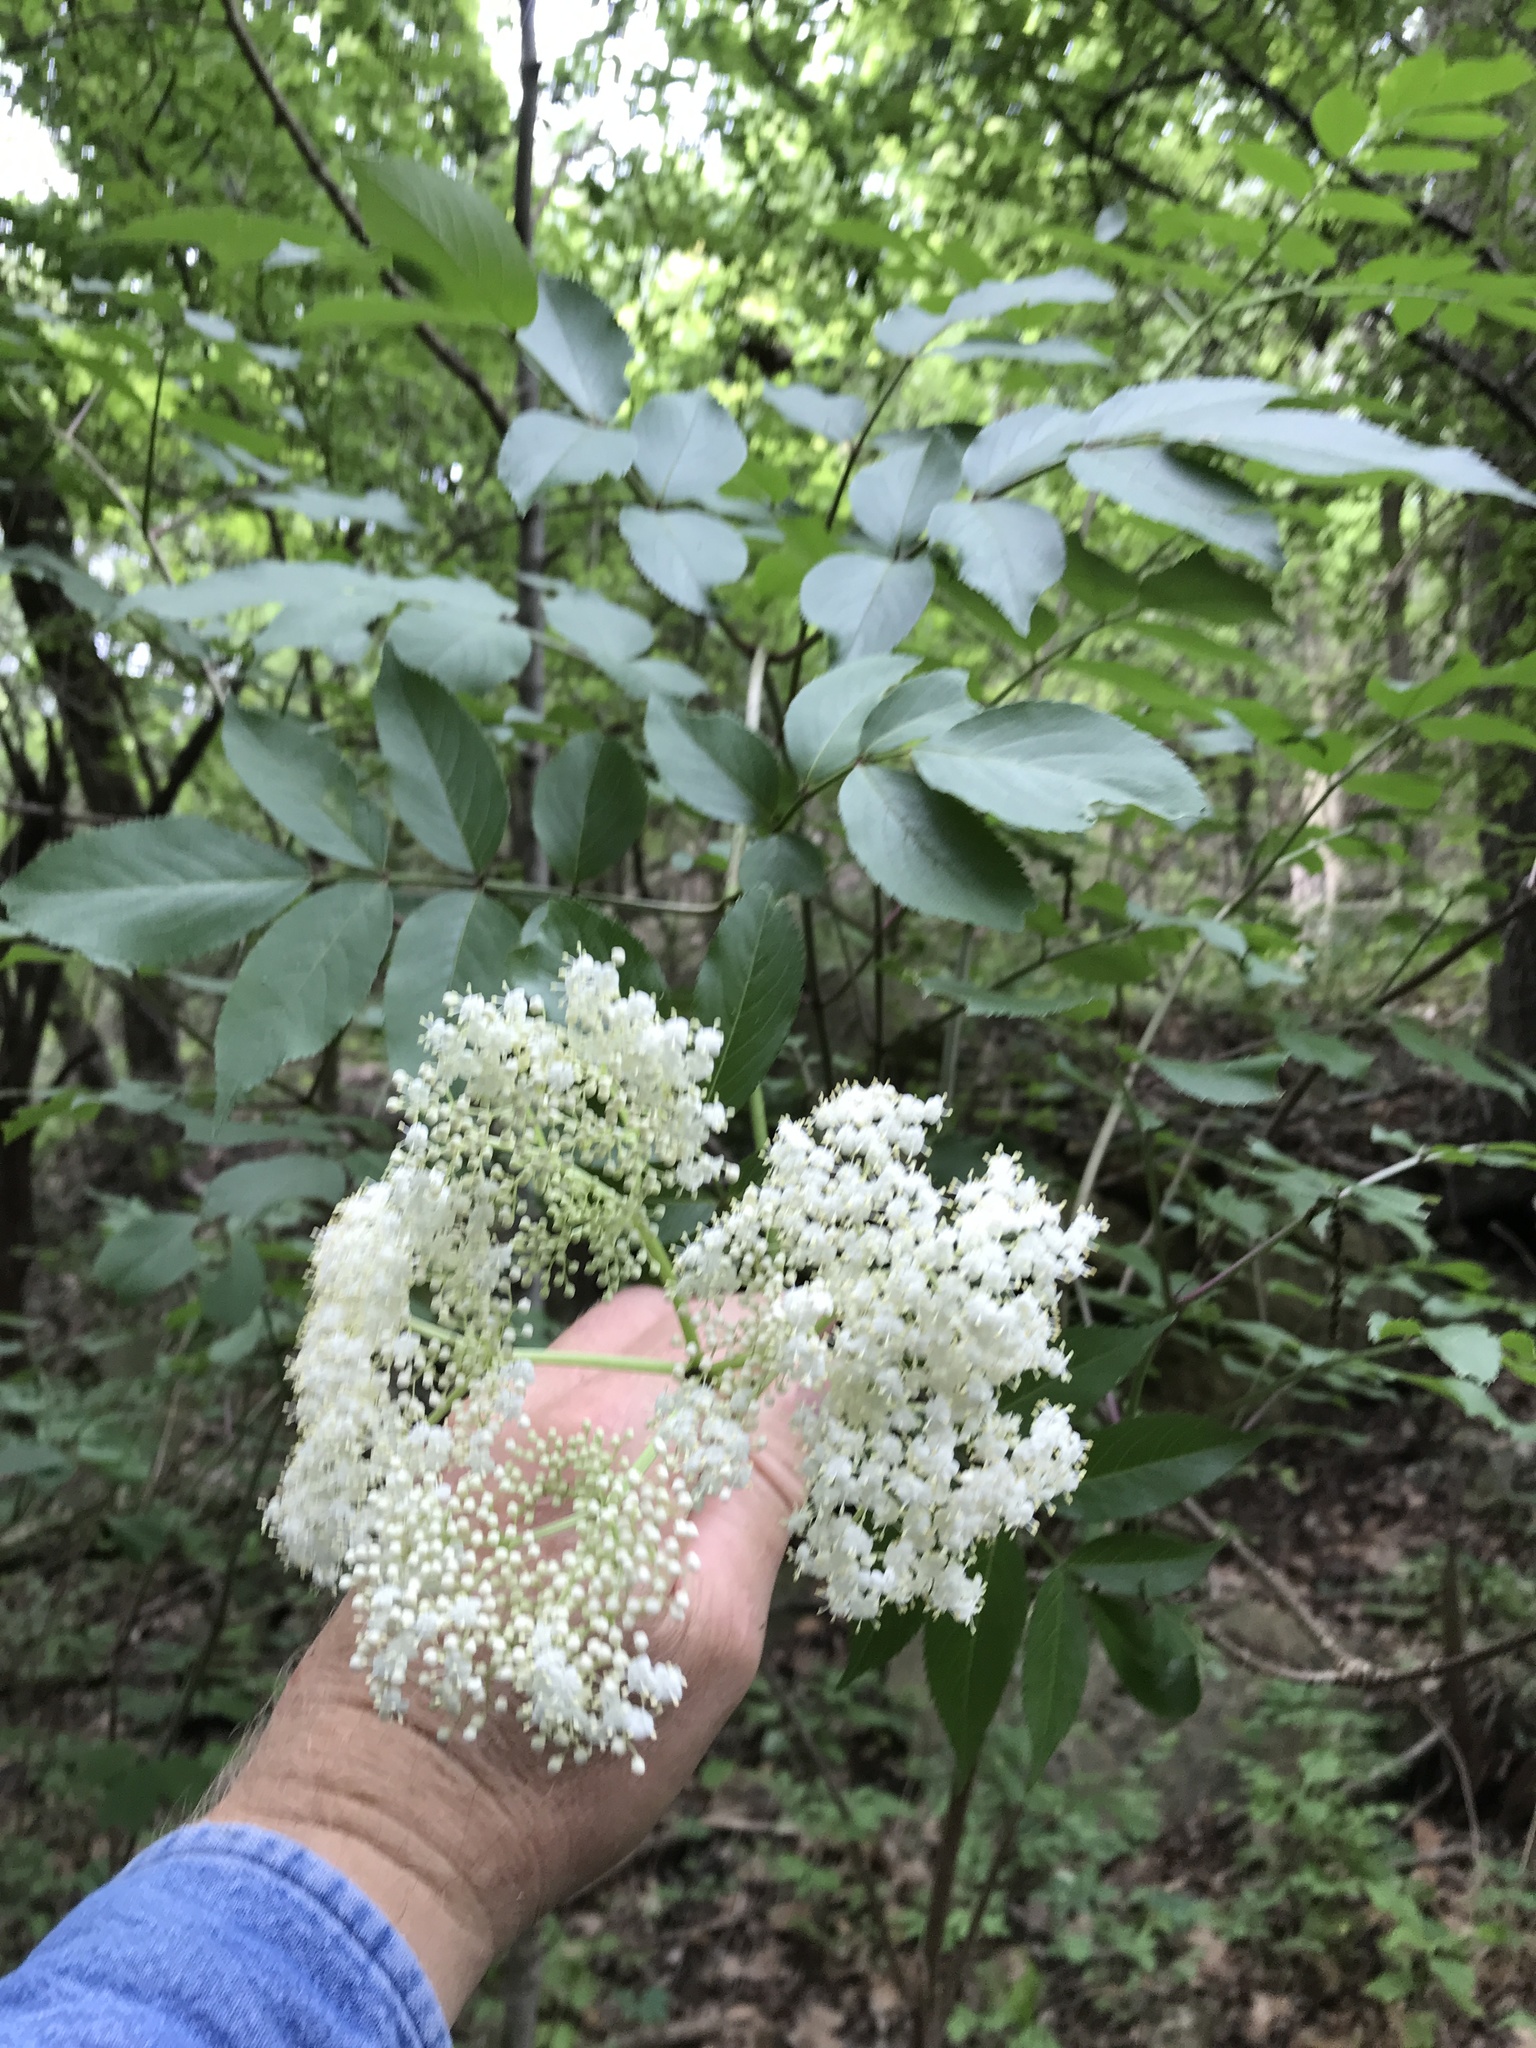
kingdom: Plantae
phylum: Tracheophyta
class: Magnoliopsida
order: Dipsacales
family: Viburnaceae
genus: Sambucus
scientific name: Sambucus canadensis
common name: American elder
